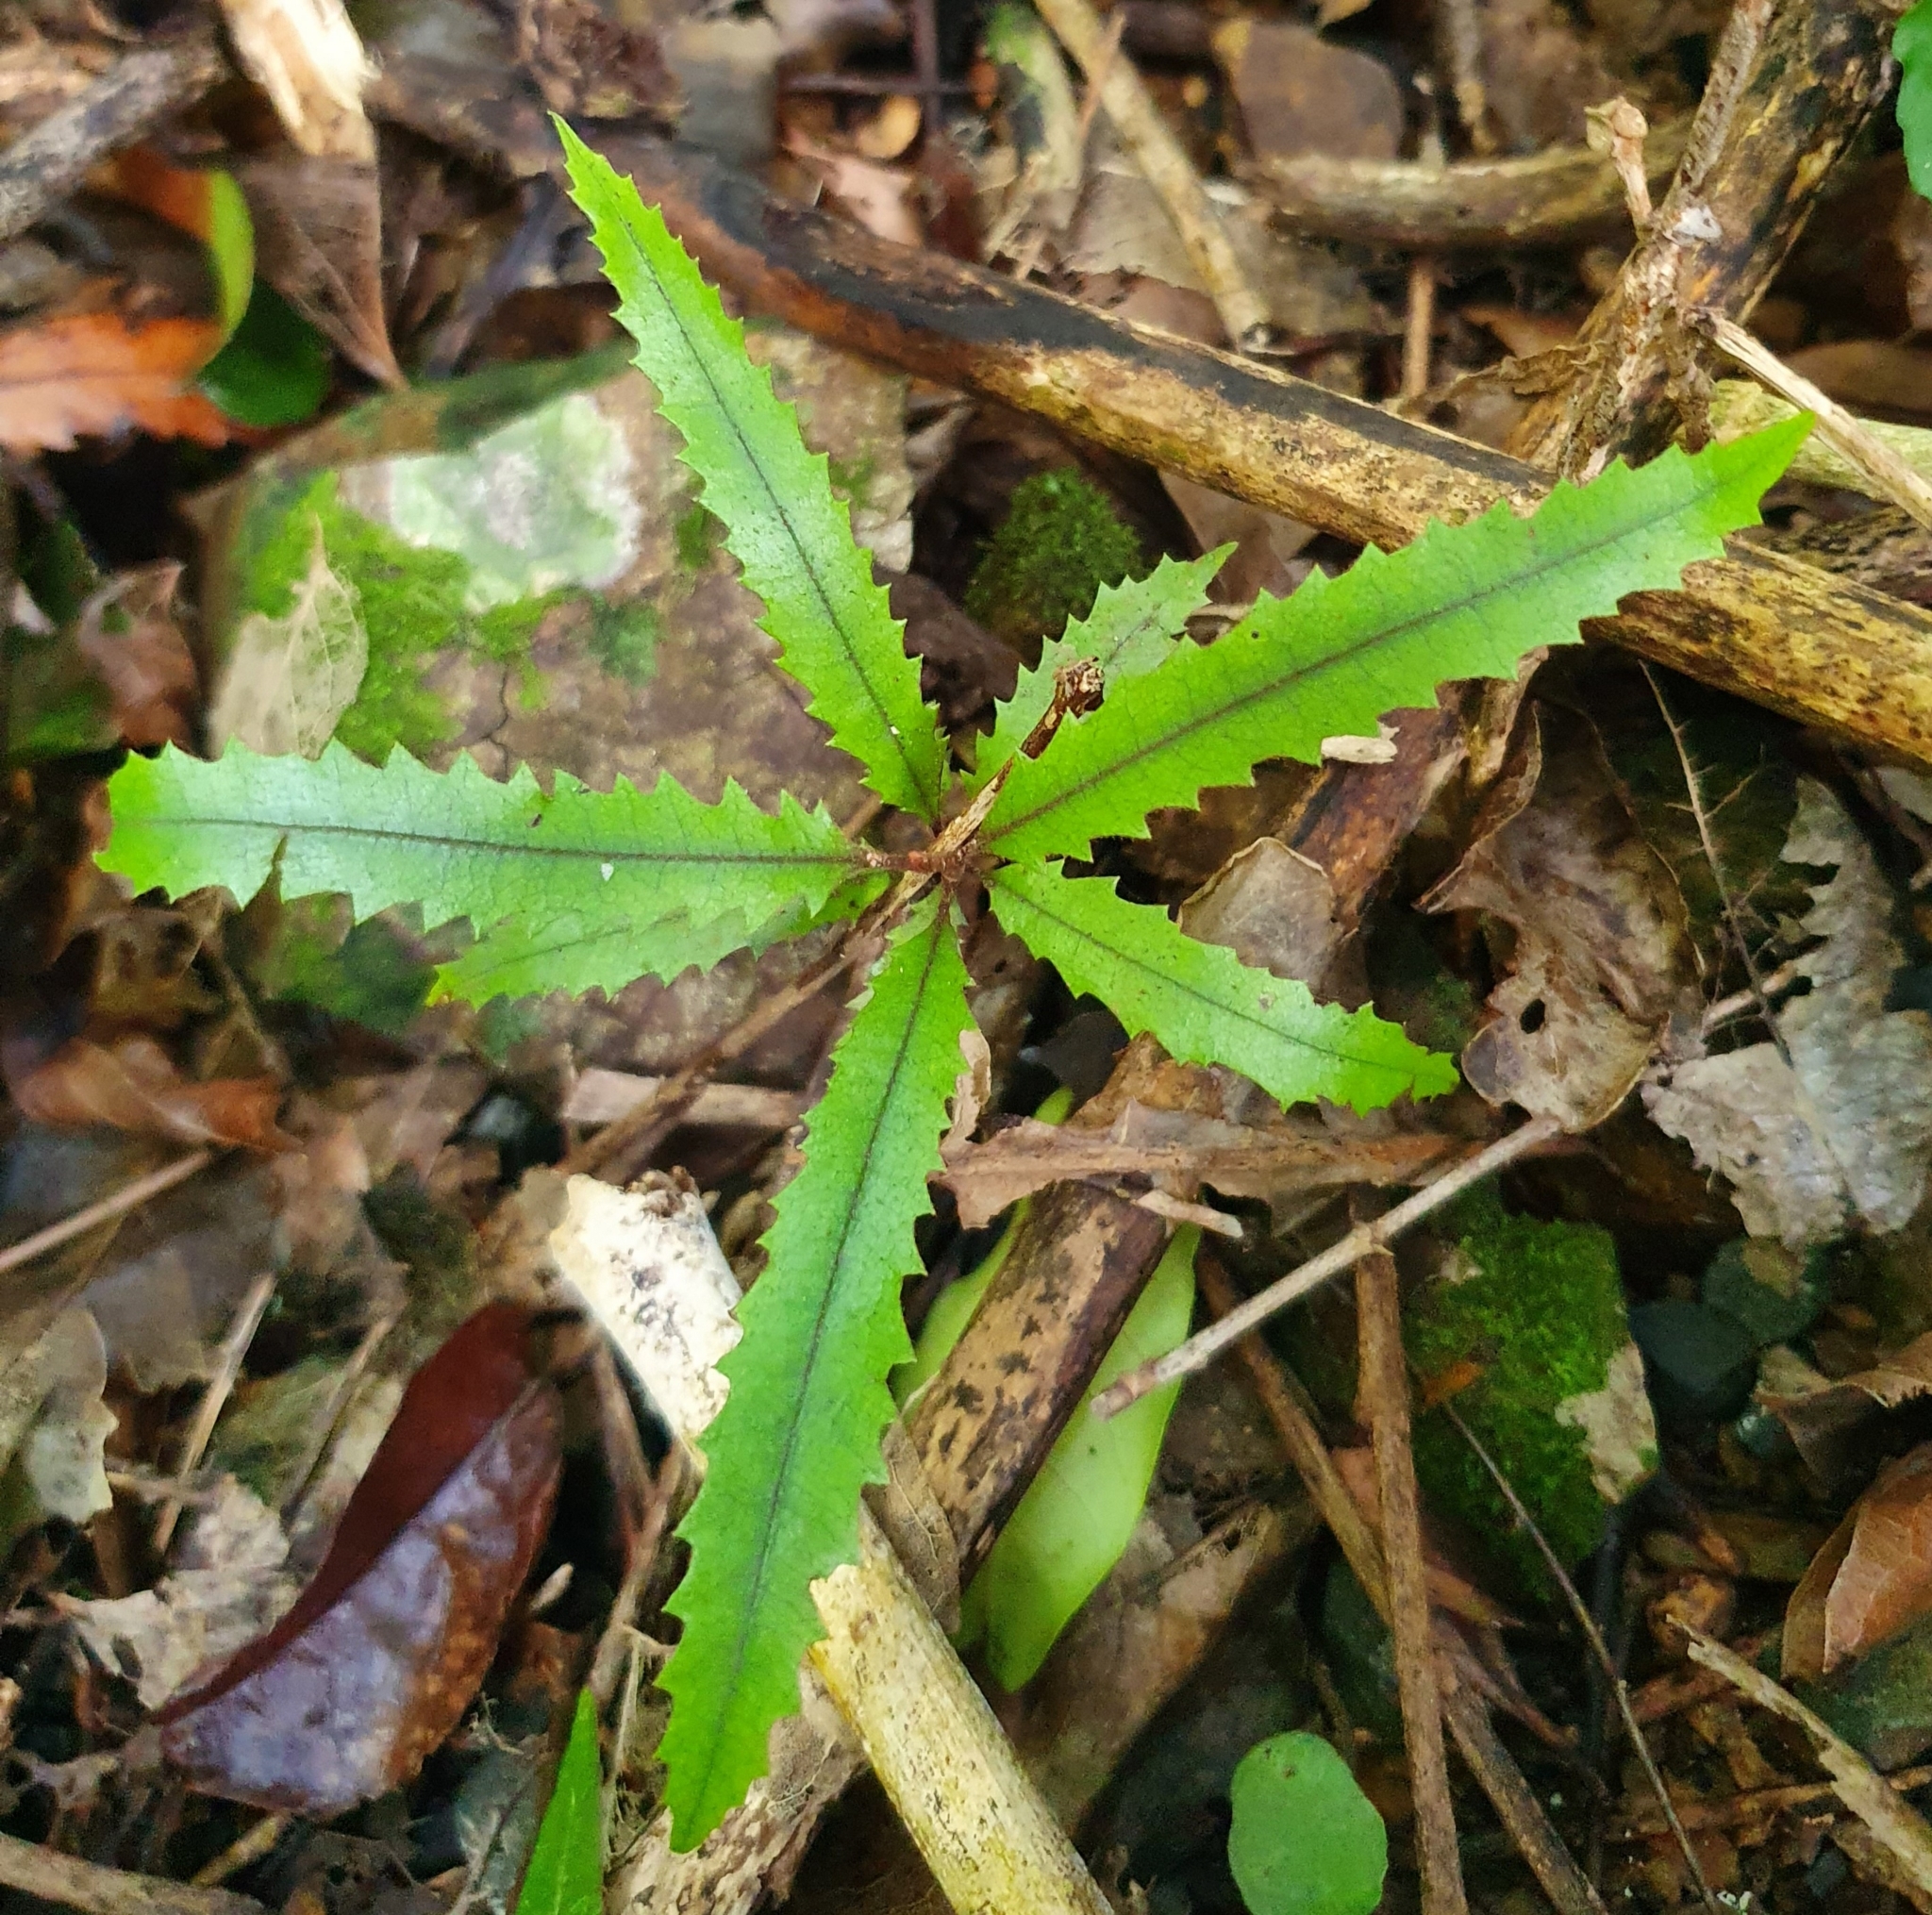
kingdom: Plantae
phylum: Tracheophyta
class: Magnoliopsida
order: Proteales
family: Proteaceae
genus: Knightia
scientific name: Knightia excelsa
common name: New zealand-honeysuckle
